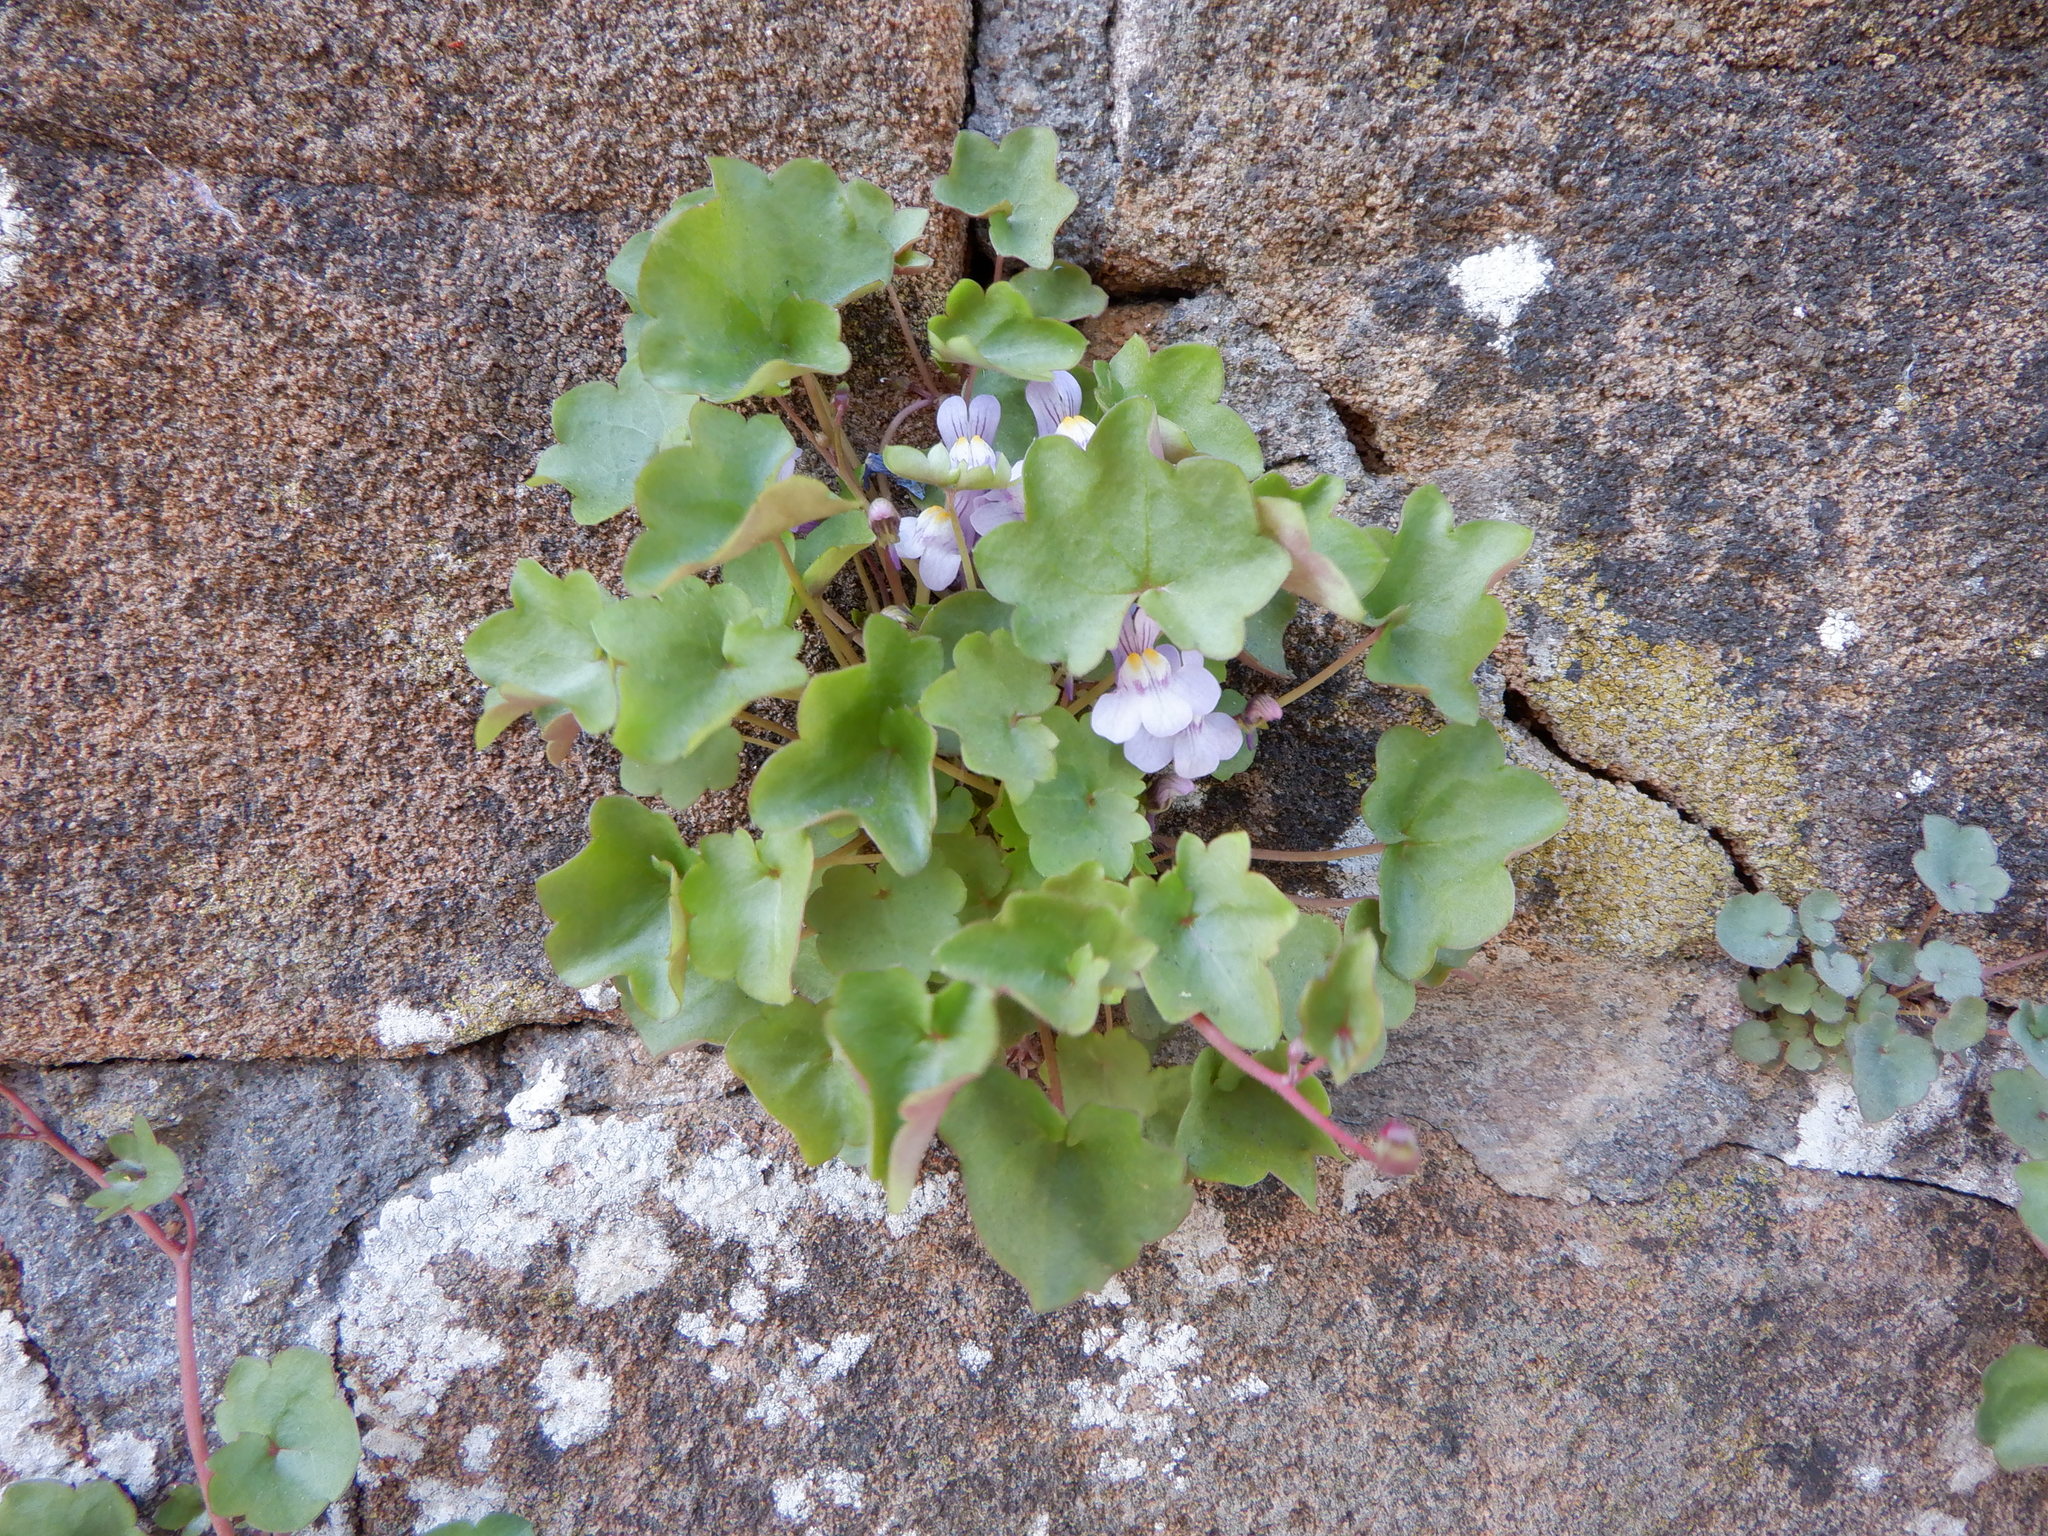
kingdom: Plantae
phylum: Tracheophyta
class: Magnoliopsida
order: Lamiales
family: Plantaginaceae
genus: Cymbalaria
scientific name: Cymbalaria muralis
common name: Ivy-leaved toadflax
